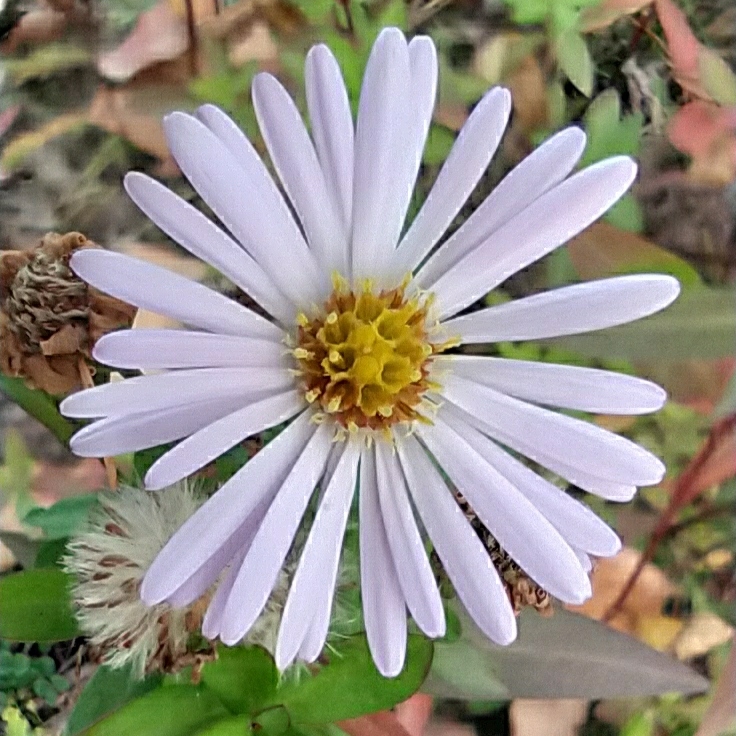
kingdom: Plantae
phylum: Tracheophyta
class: Magnoliopsida
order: Asterales
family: Asteraceae
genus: Symphyotrichum
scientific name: Symphyotrichum salignum
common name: Common michaelmas daisy
